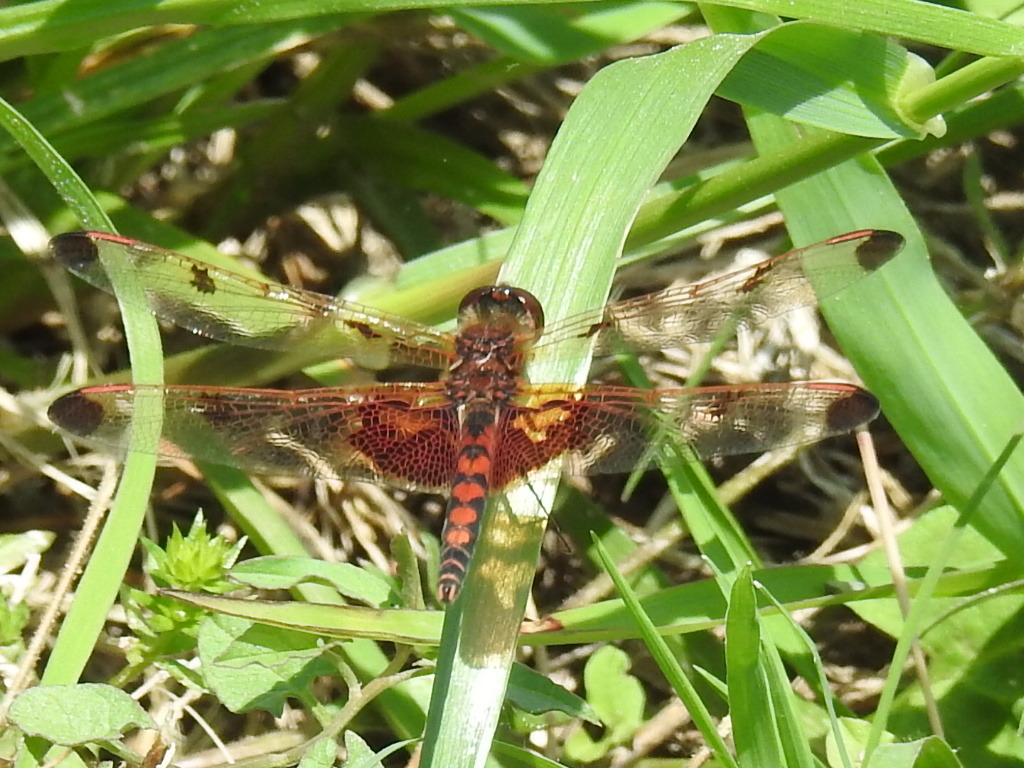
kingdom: Animalia
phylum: Arthropoda
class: Insecta
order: Odonata
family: Libellulidae
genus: Celithemis
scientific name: Celithemis elisa
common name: Calico pennant
